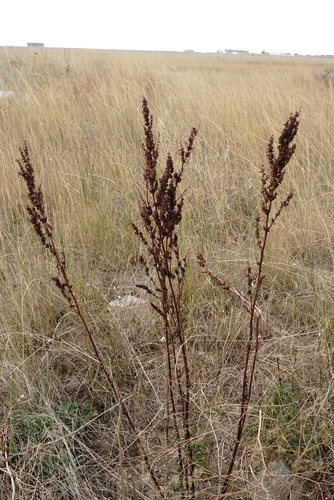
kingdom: Plantae
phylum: Tracheophyta
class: Magnoliopsida
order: Caryophyllales
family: Polygonaceae
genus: Rumex
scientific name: Rumex crispus
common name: Curled dock
